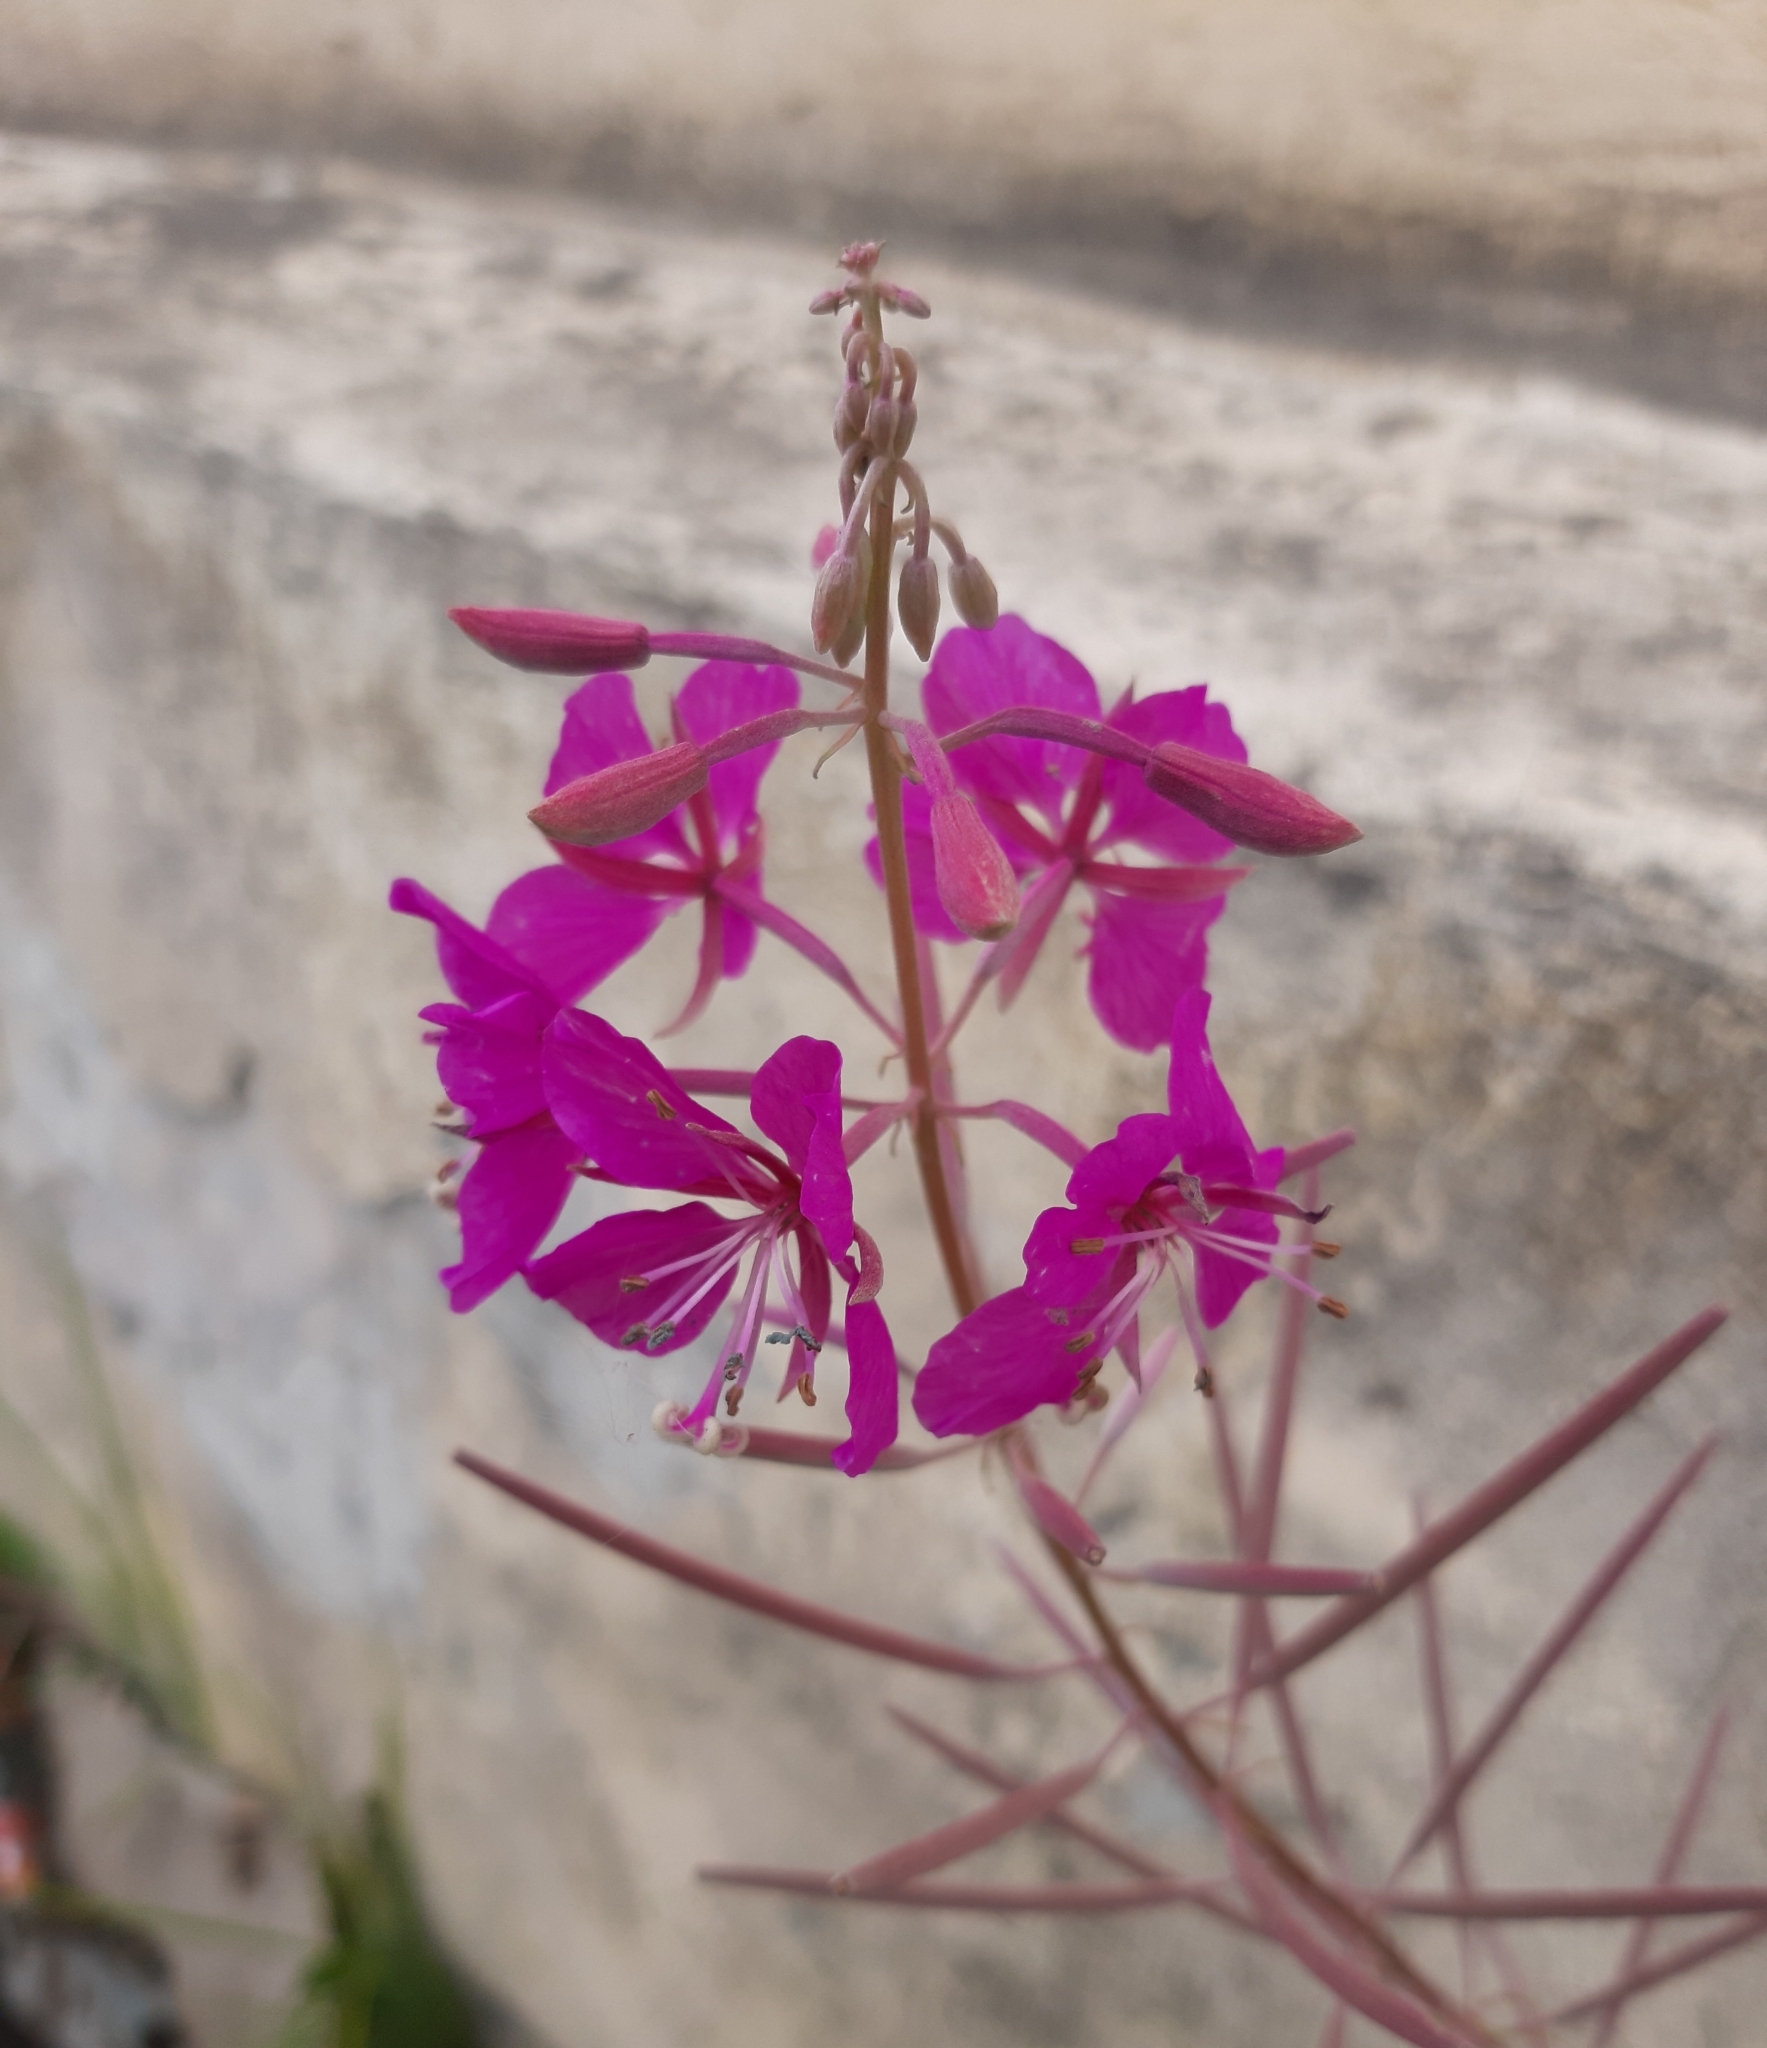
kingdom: Plantae
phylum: Tracheophyta
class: Magnoliopsida
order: Myrtales
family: Onagraceae
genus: Chamaenerion
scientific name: Chamaenerion angustifolium
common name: Fireweed
